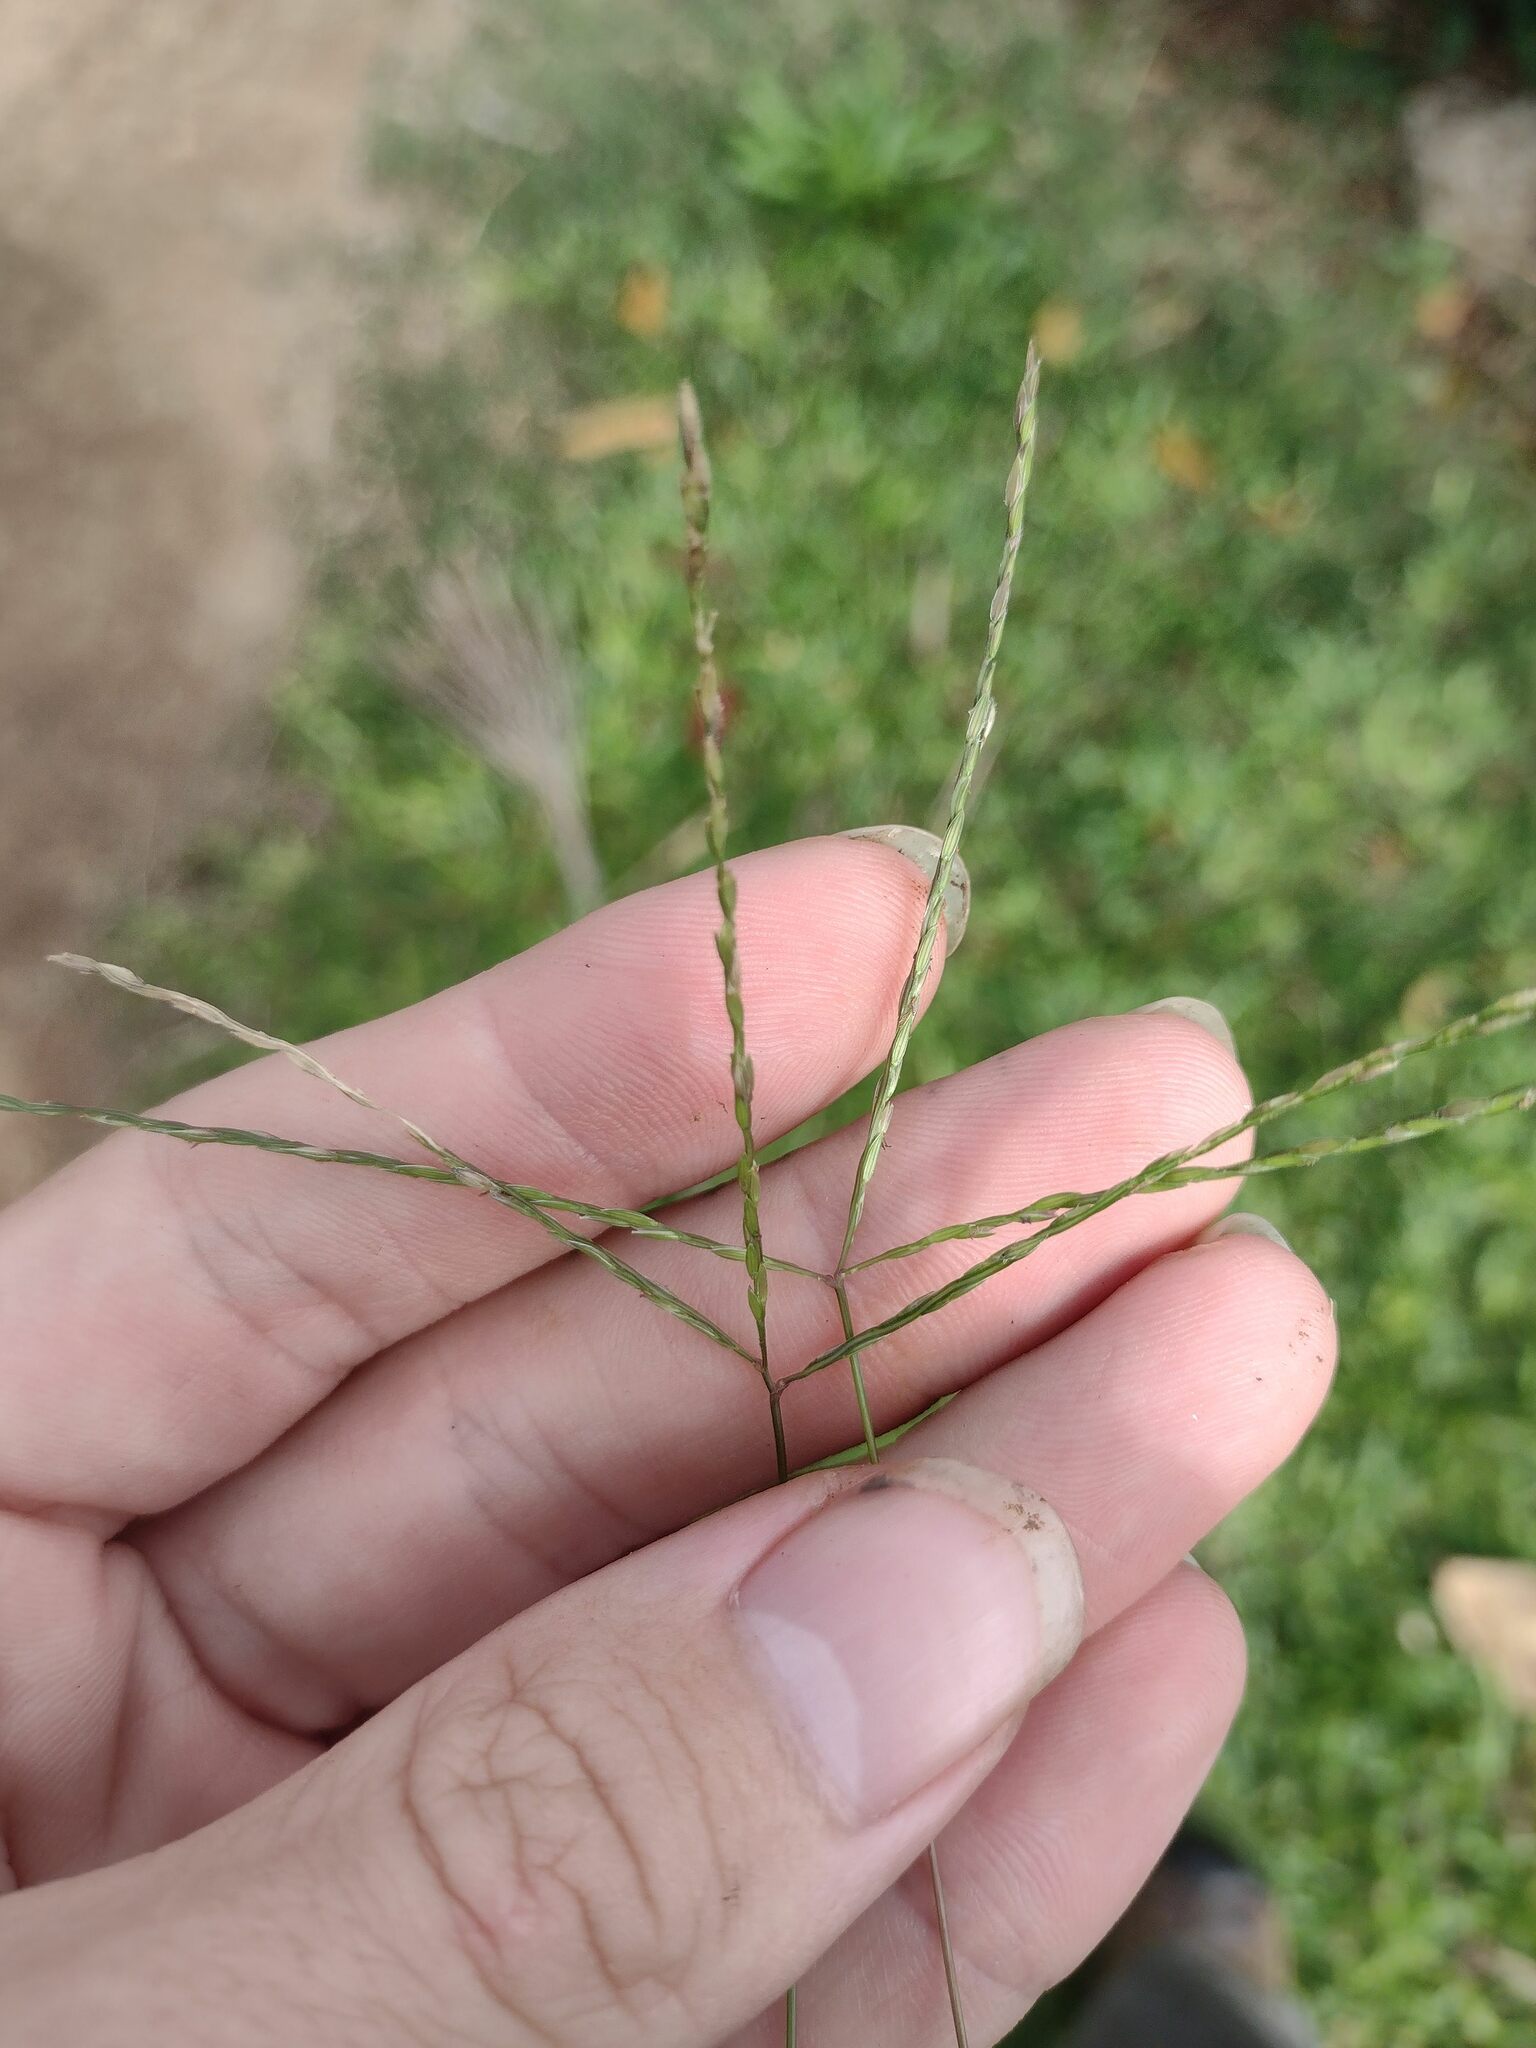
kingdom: Plantae
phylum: Tracheophyta
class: Liliopsida
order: Poales
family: Poaceae
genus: Digitaria
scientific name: Digitaria radicosa
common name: Trailing crabgrass
